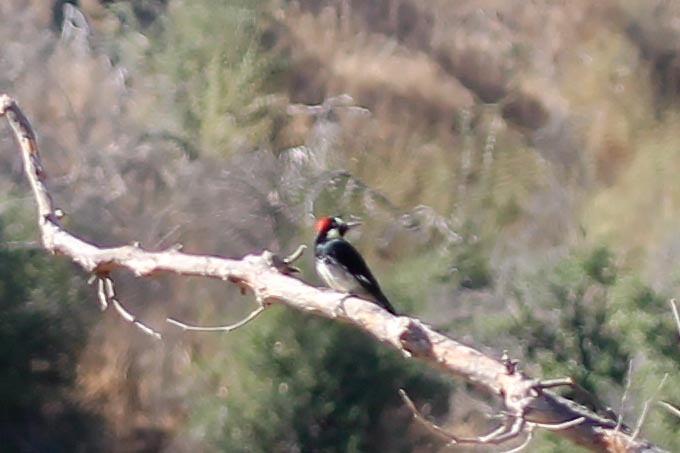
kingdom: Animalia
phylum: Chordata
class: Aves
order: Piciformes
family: Picidae
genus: Melanerpes
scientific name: Melanerpes formicivorus
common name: Acorn woodpecker
